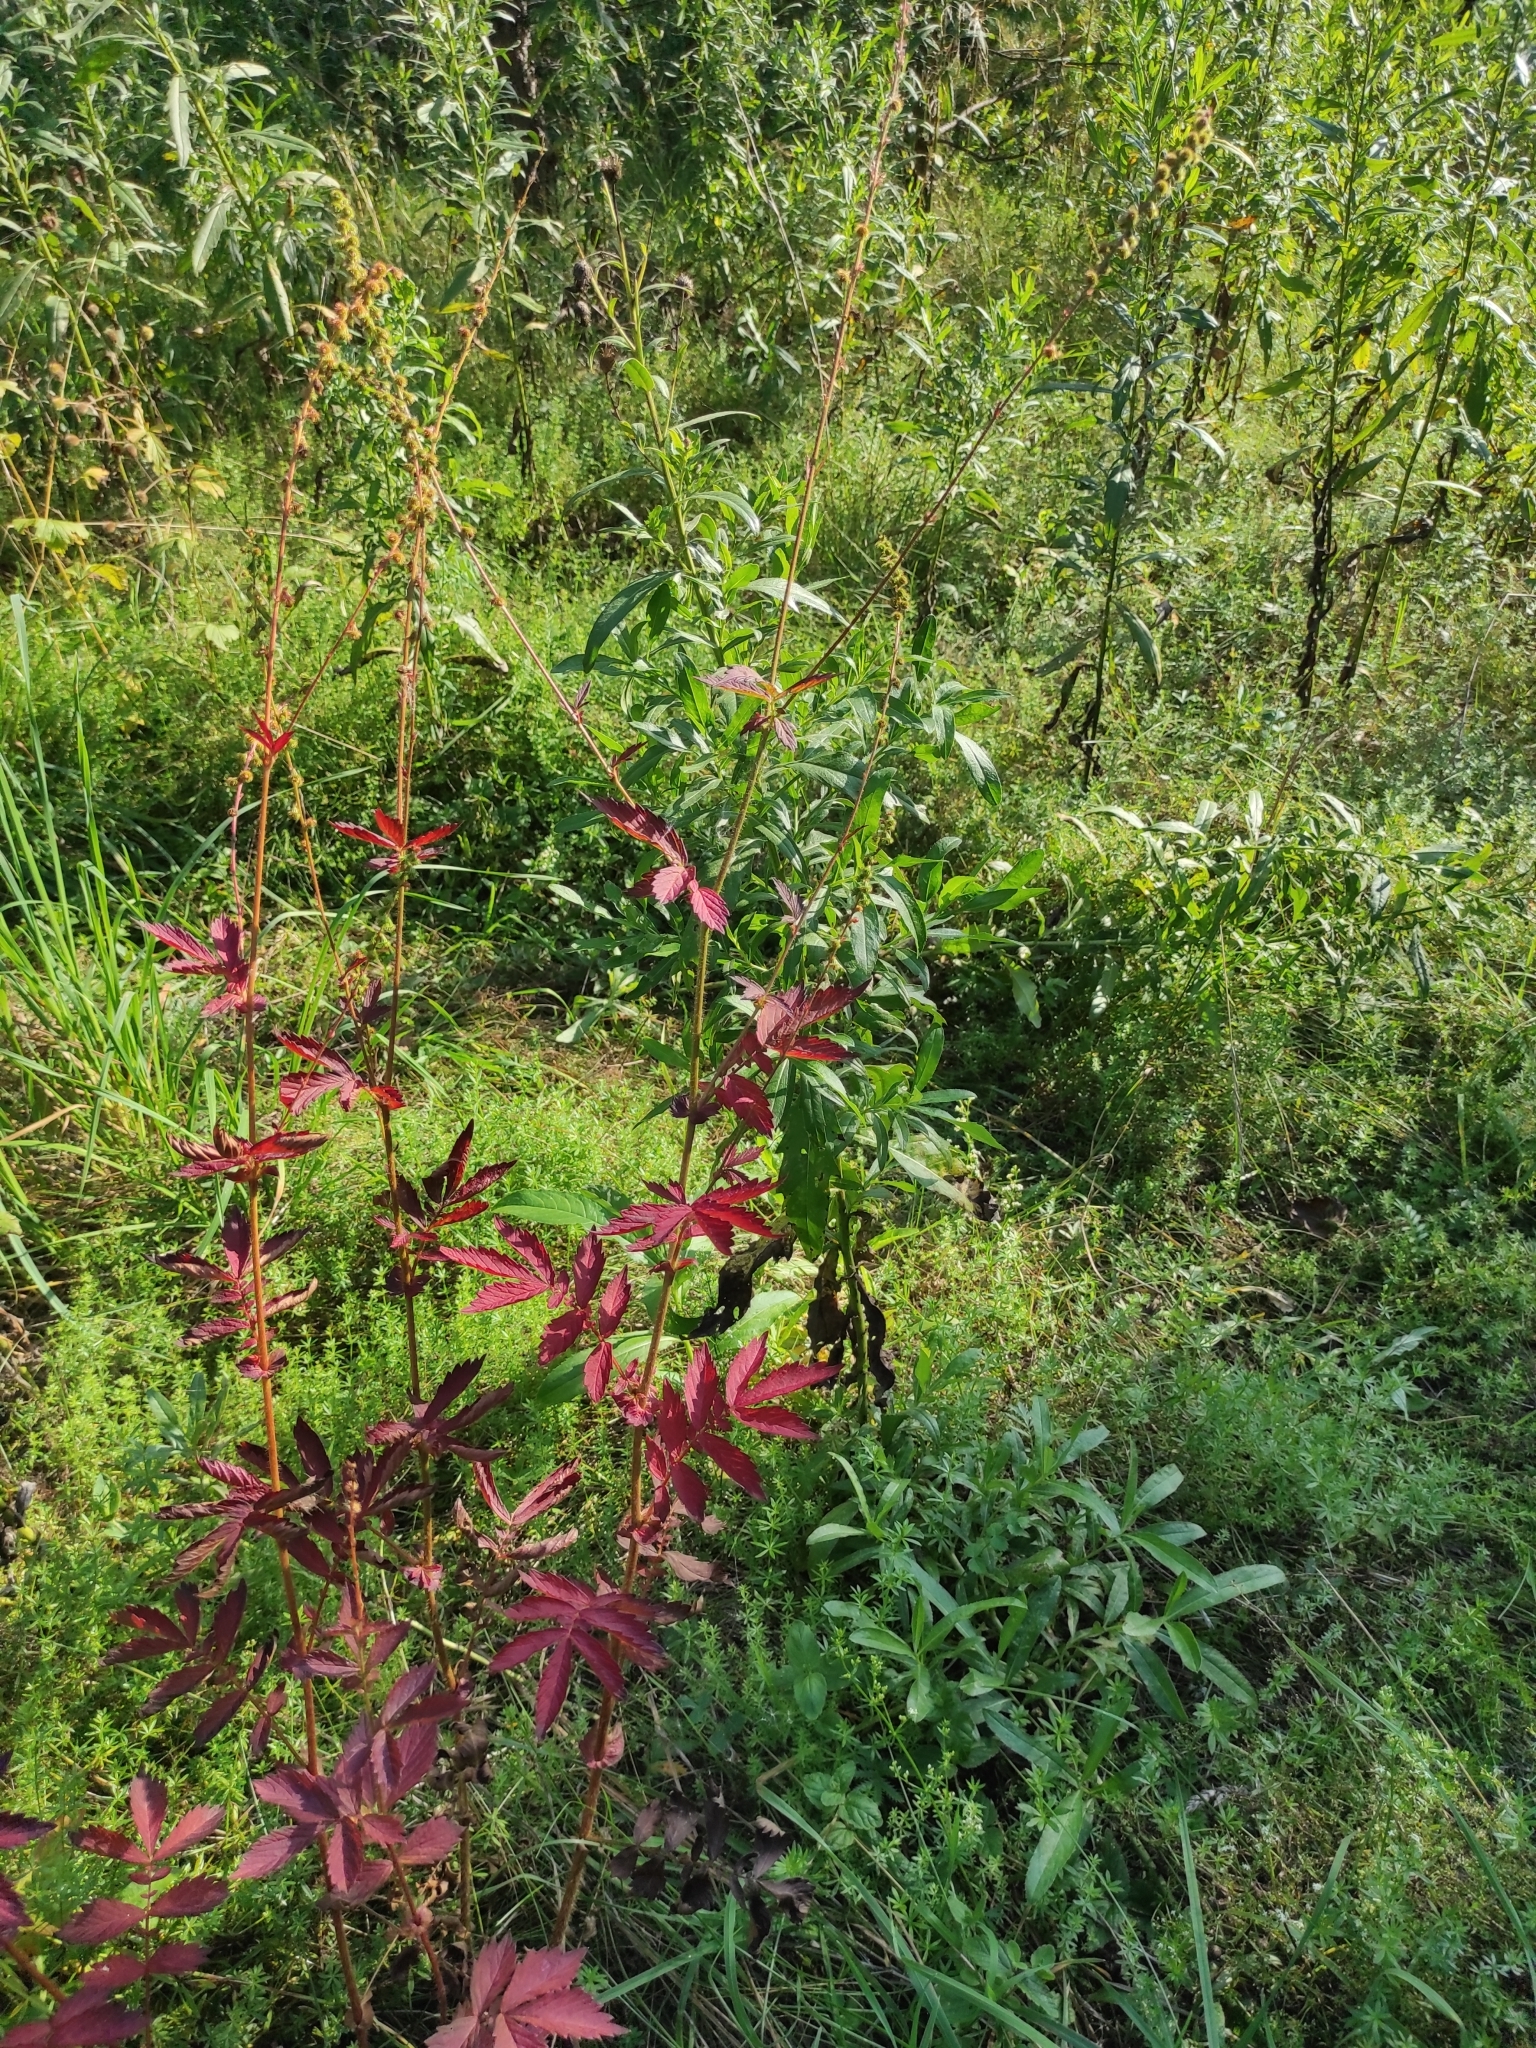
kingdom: Plantae
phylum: Tracheophyta
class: Magnoliopsida
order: Rosales
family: Rosaceae
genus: Agrimonia
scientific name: Agrimonia pilosa
